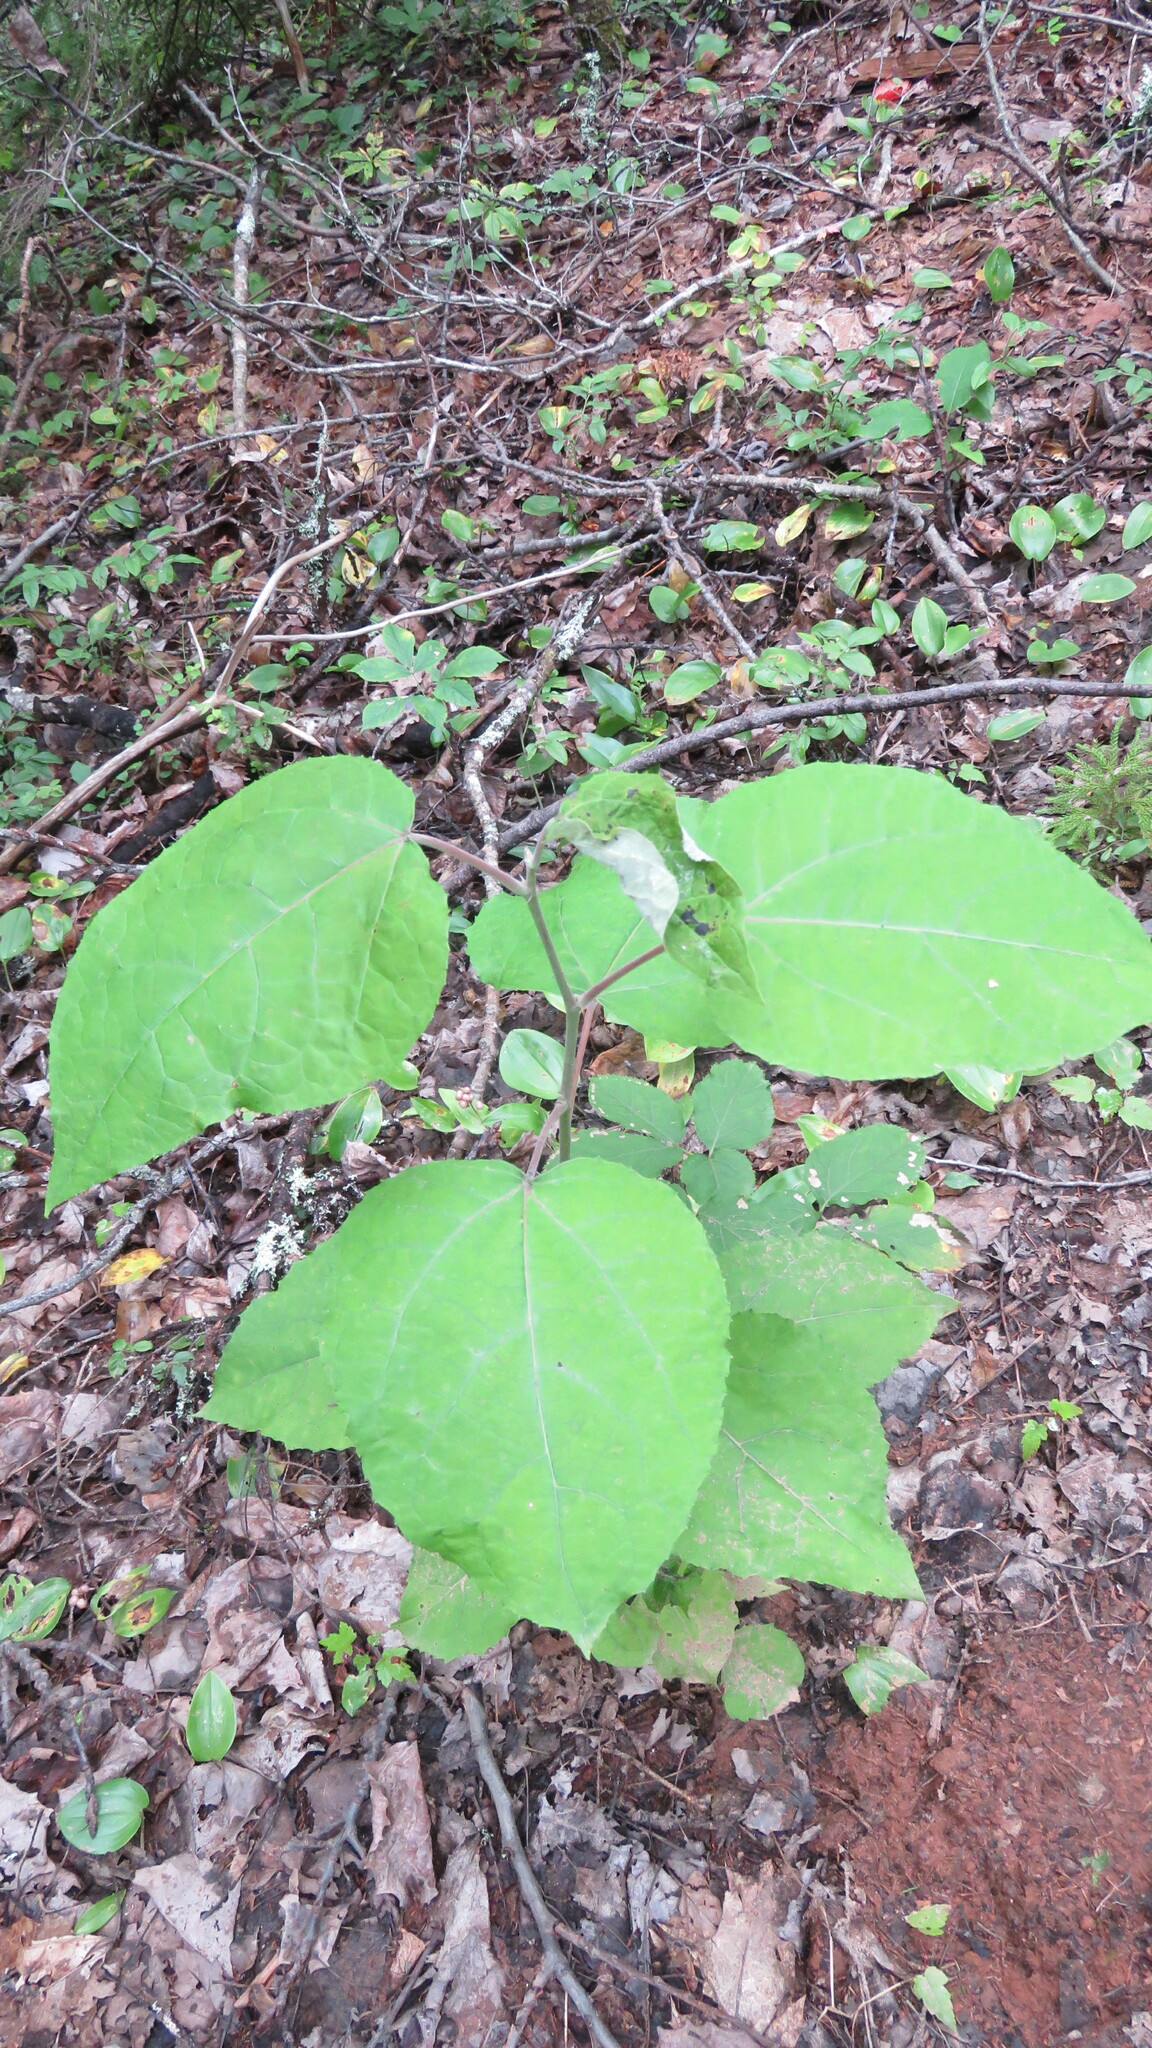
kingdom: Plantae
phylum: Tracheophyta
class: Magnoliopsida
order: Malpighiales
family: Salicaceae
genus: Populus
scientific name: Populus grandidentata
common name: Bigtooth aspen
